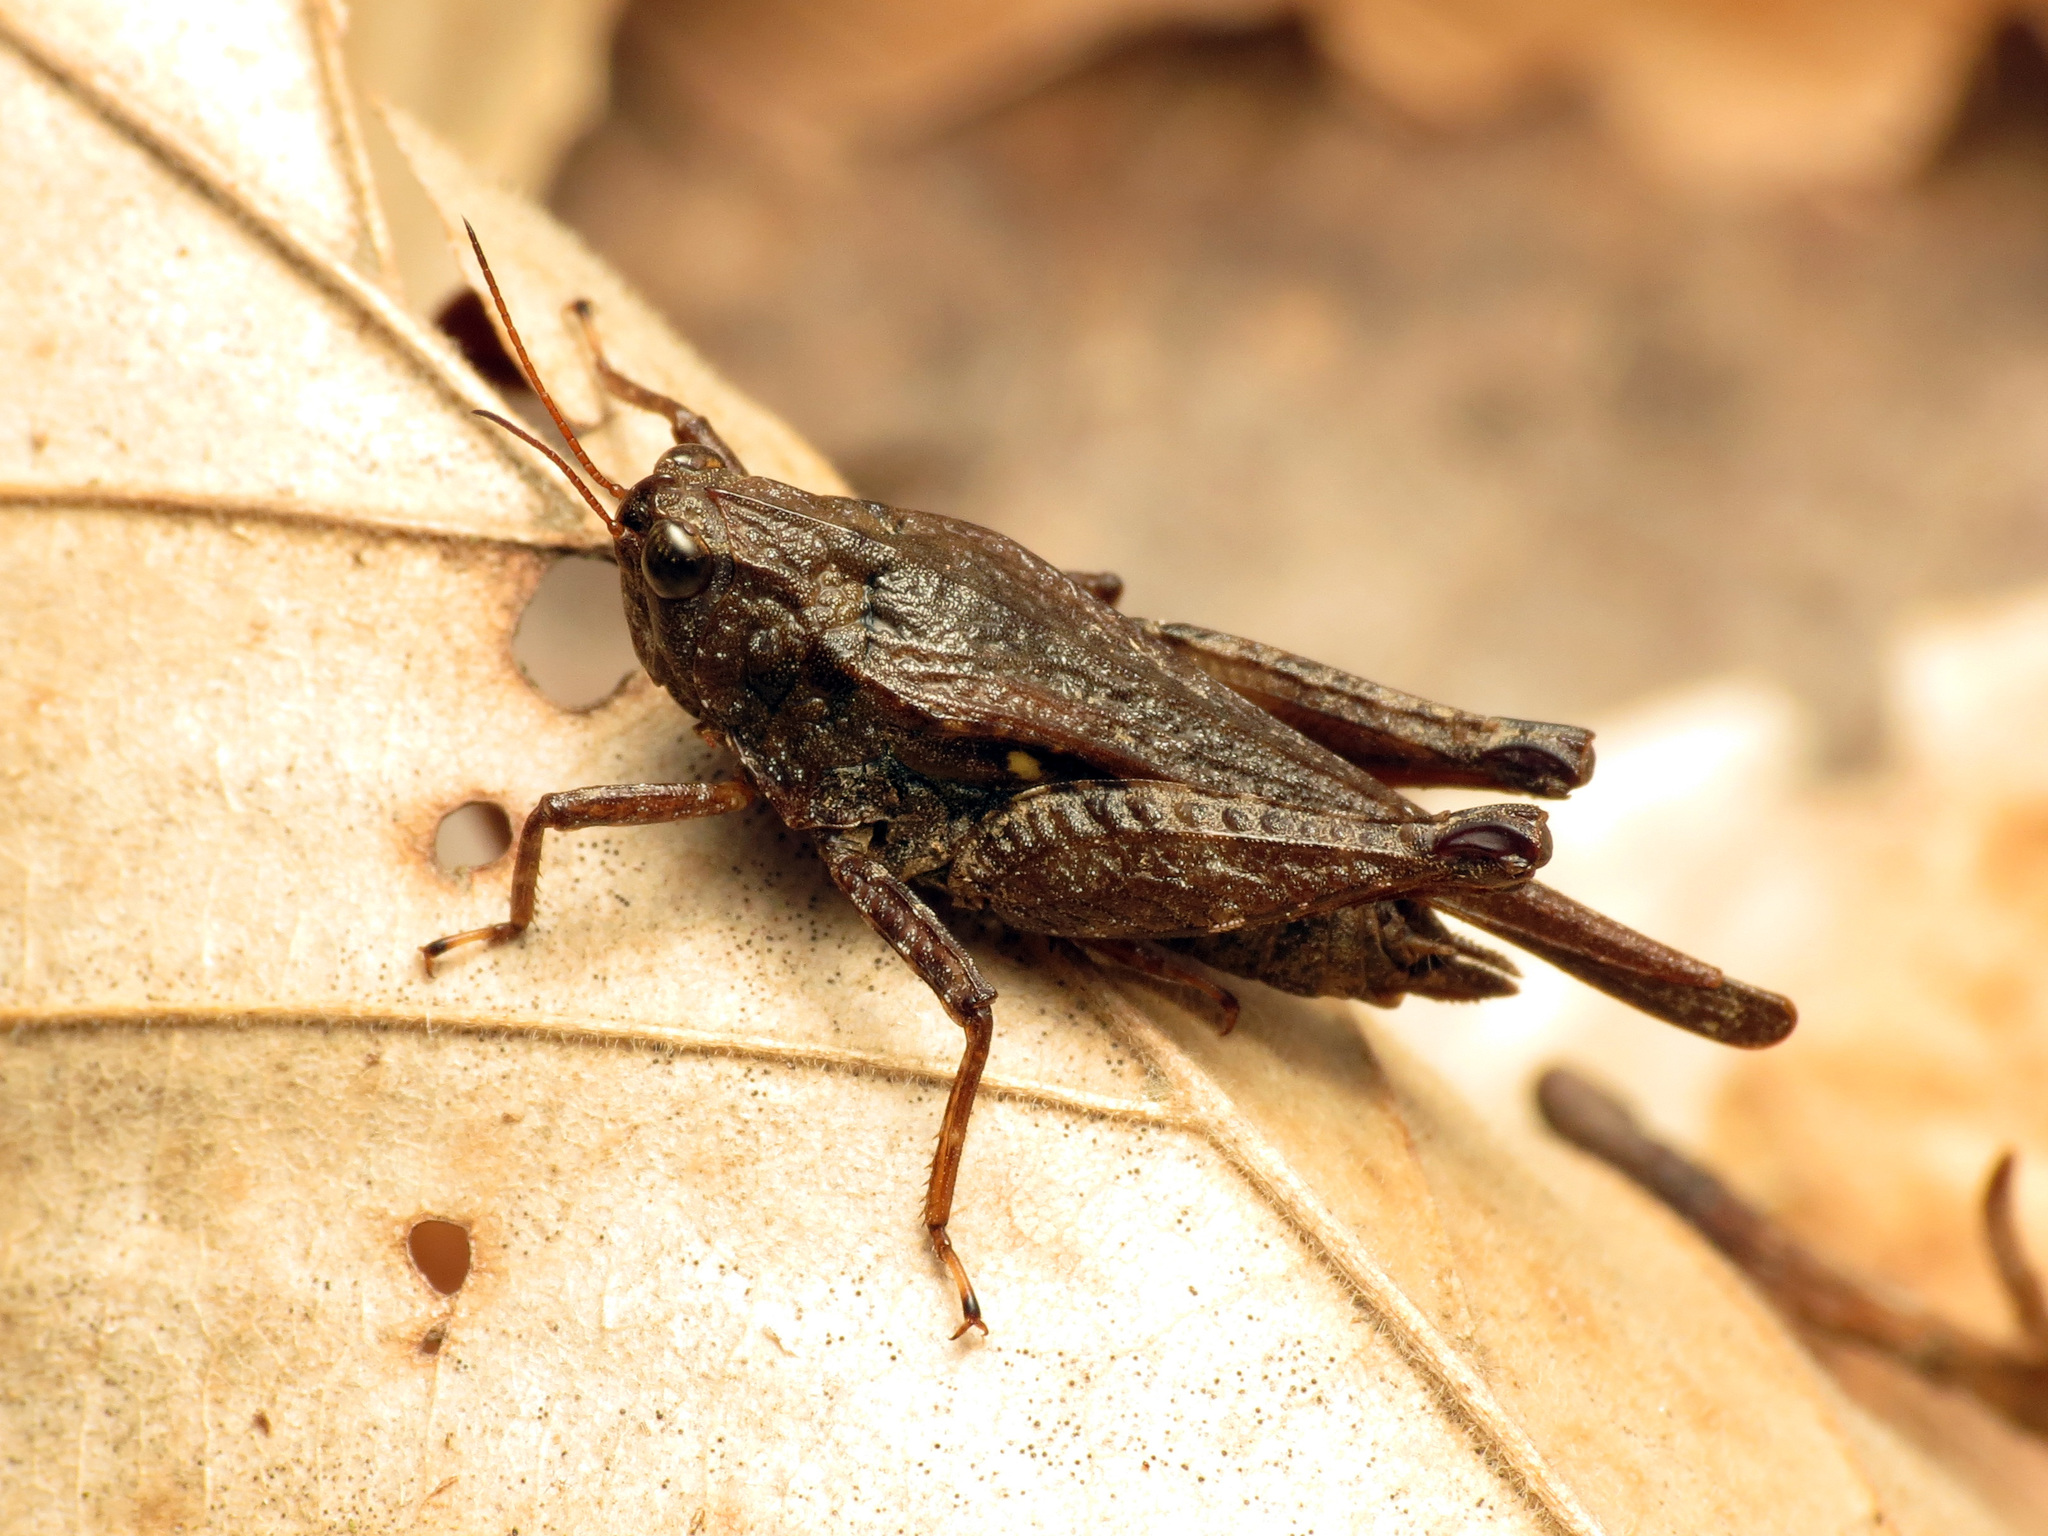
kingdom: Animalia
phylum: Arthropoda
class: Insecta
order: Orthoptera
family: Tetrigidae
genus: Tettigidea
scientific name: Tettigidea armata
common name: Spined grouse locust
